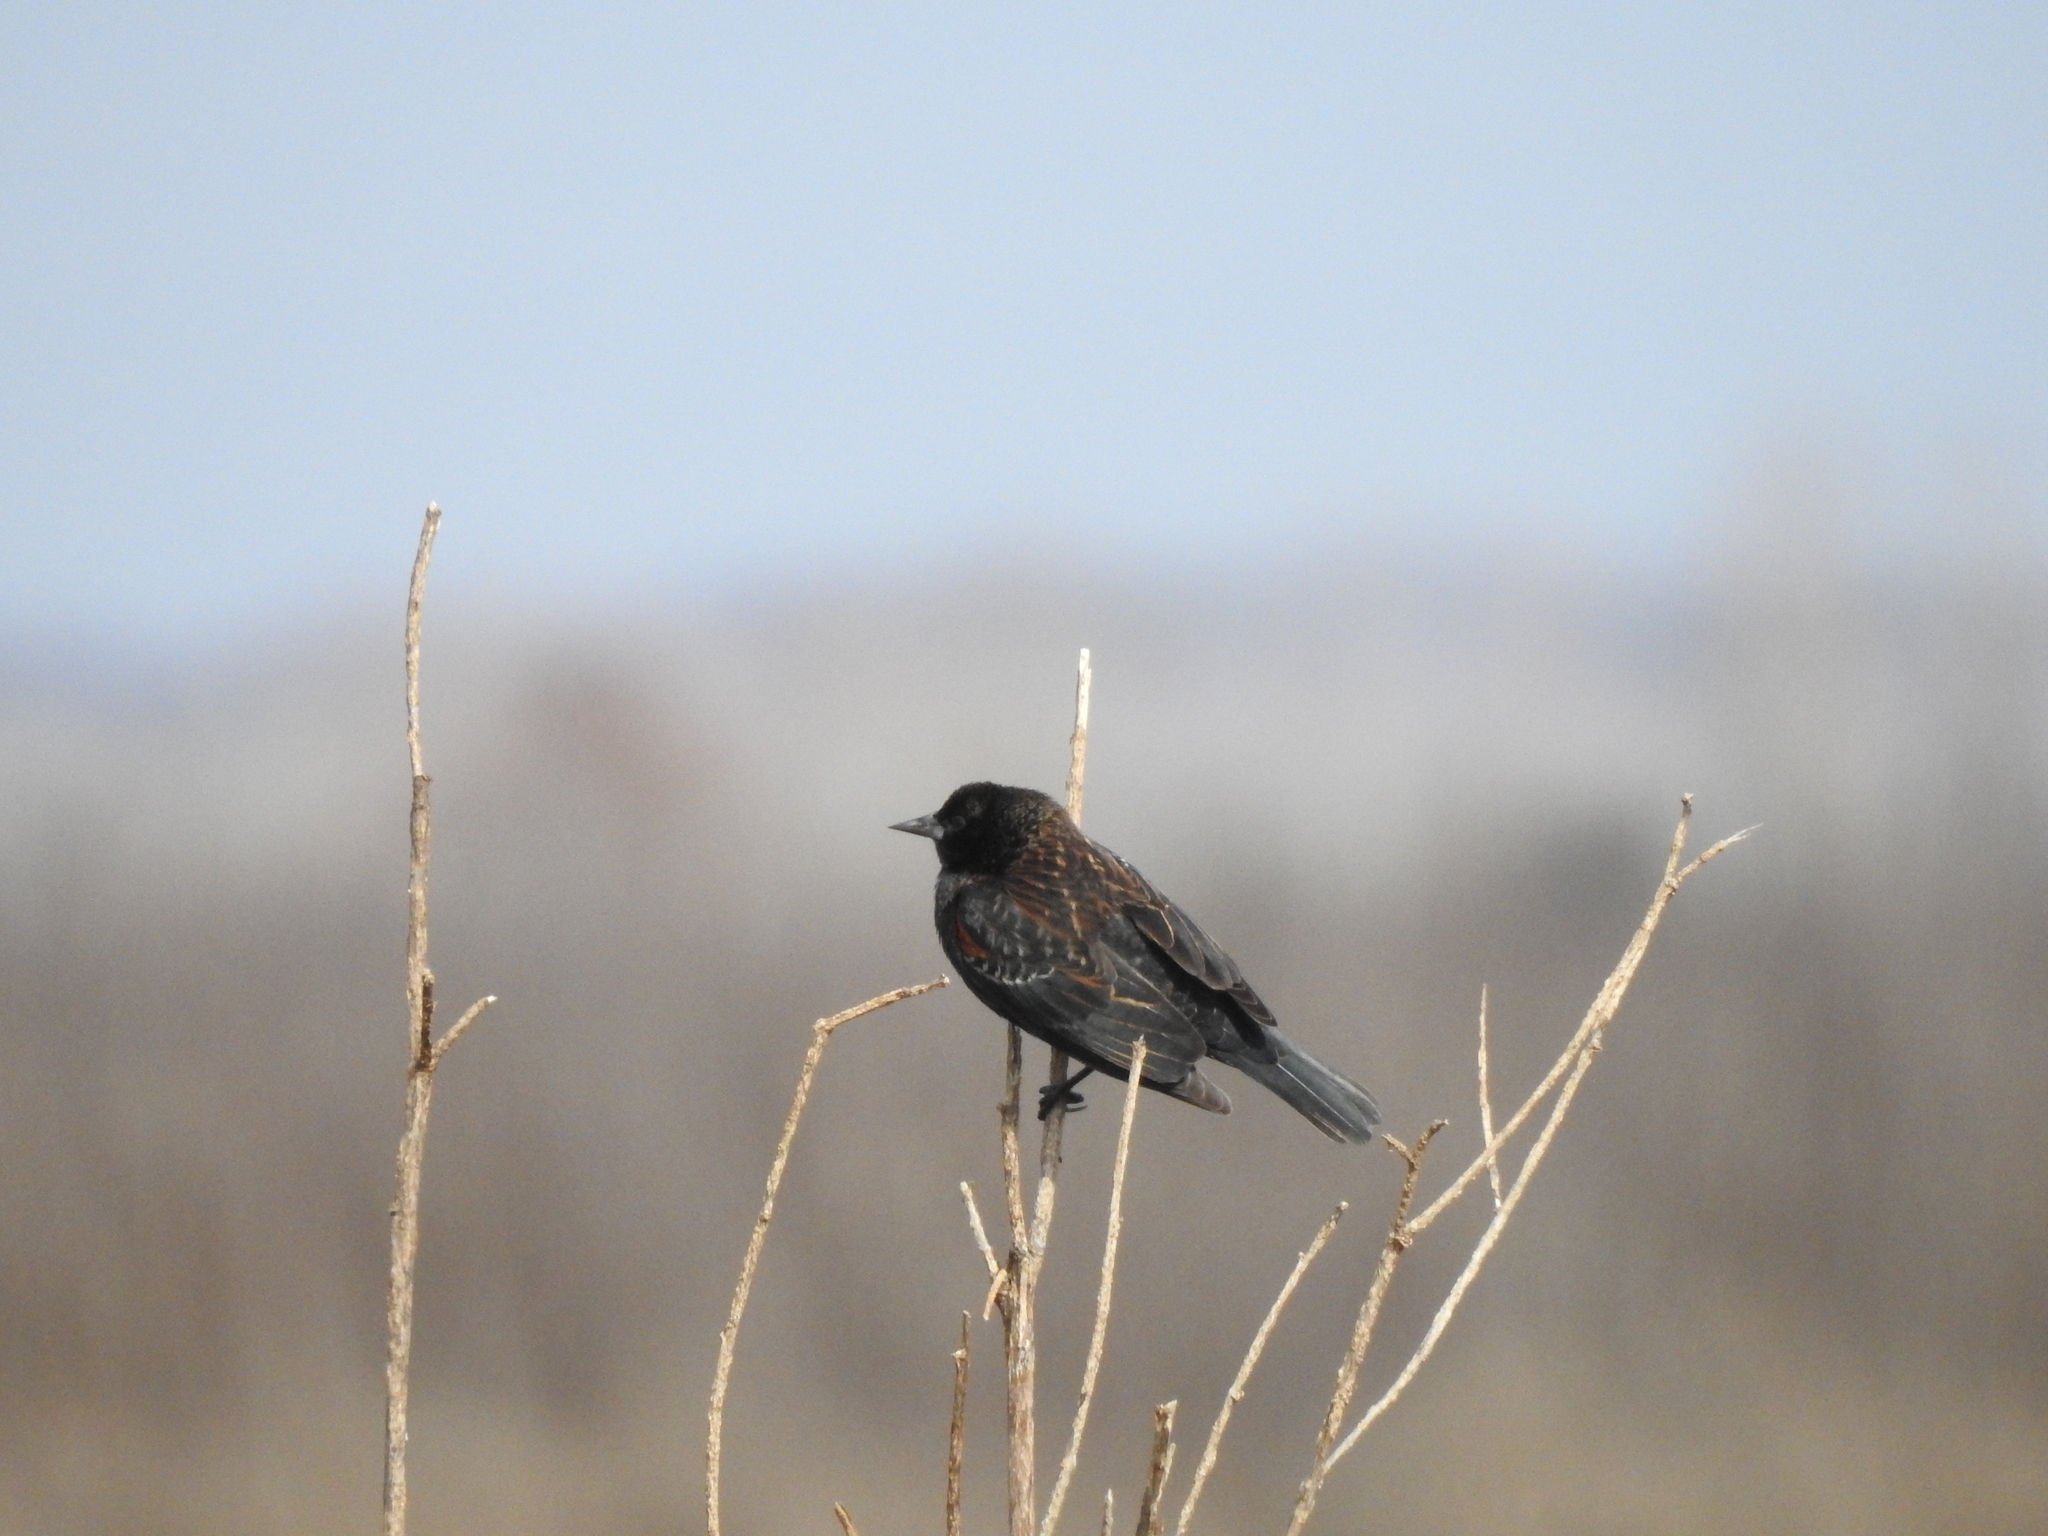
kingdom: Animalia
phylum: Chordata
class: Aves
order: Passeriformes
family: Icteridae
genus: Agelaius
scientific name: Agelaius phoeniceus
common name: Red-winged blackbird
